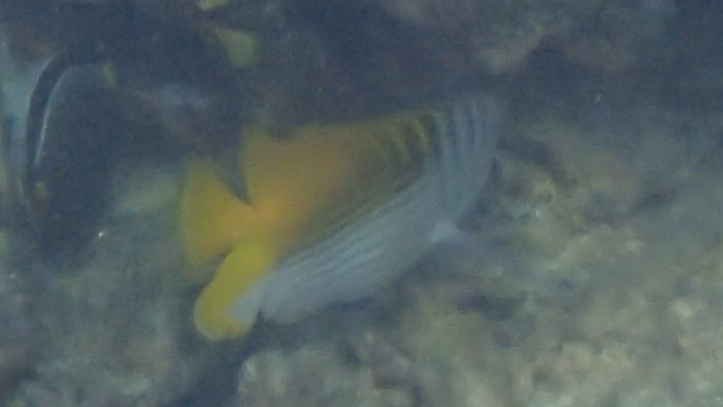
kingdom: Animalia
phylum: Chordata
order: Perciformes
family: Chaetodontidae
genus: Chaetodon
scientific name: Chaetodon auriga
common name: Threadfin butterflyfish
